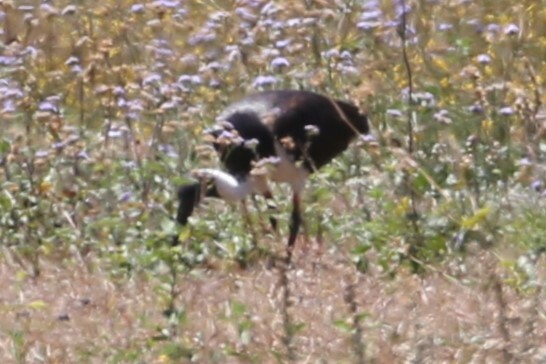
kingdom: Animalia
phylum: Chordata
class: Aves
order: Pelecaniformes
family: Threskiornithidae
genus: Threskiornis
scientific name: Threskiornis spinicollis
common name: Straw-necked ibis
